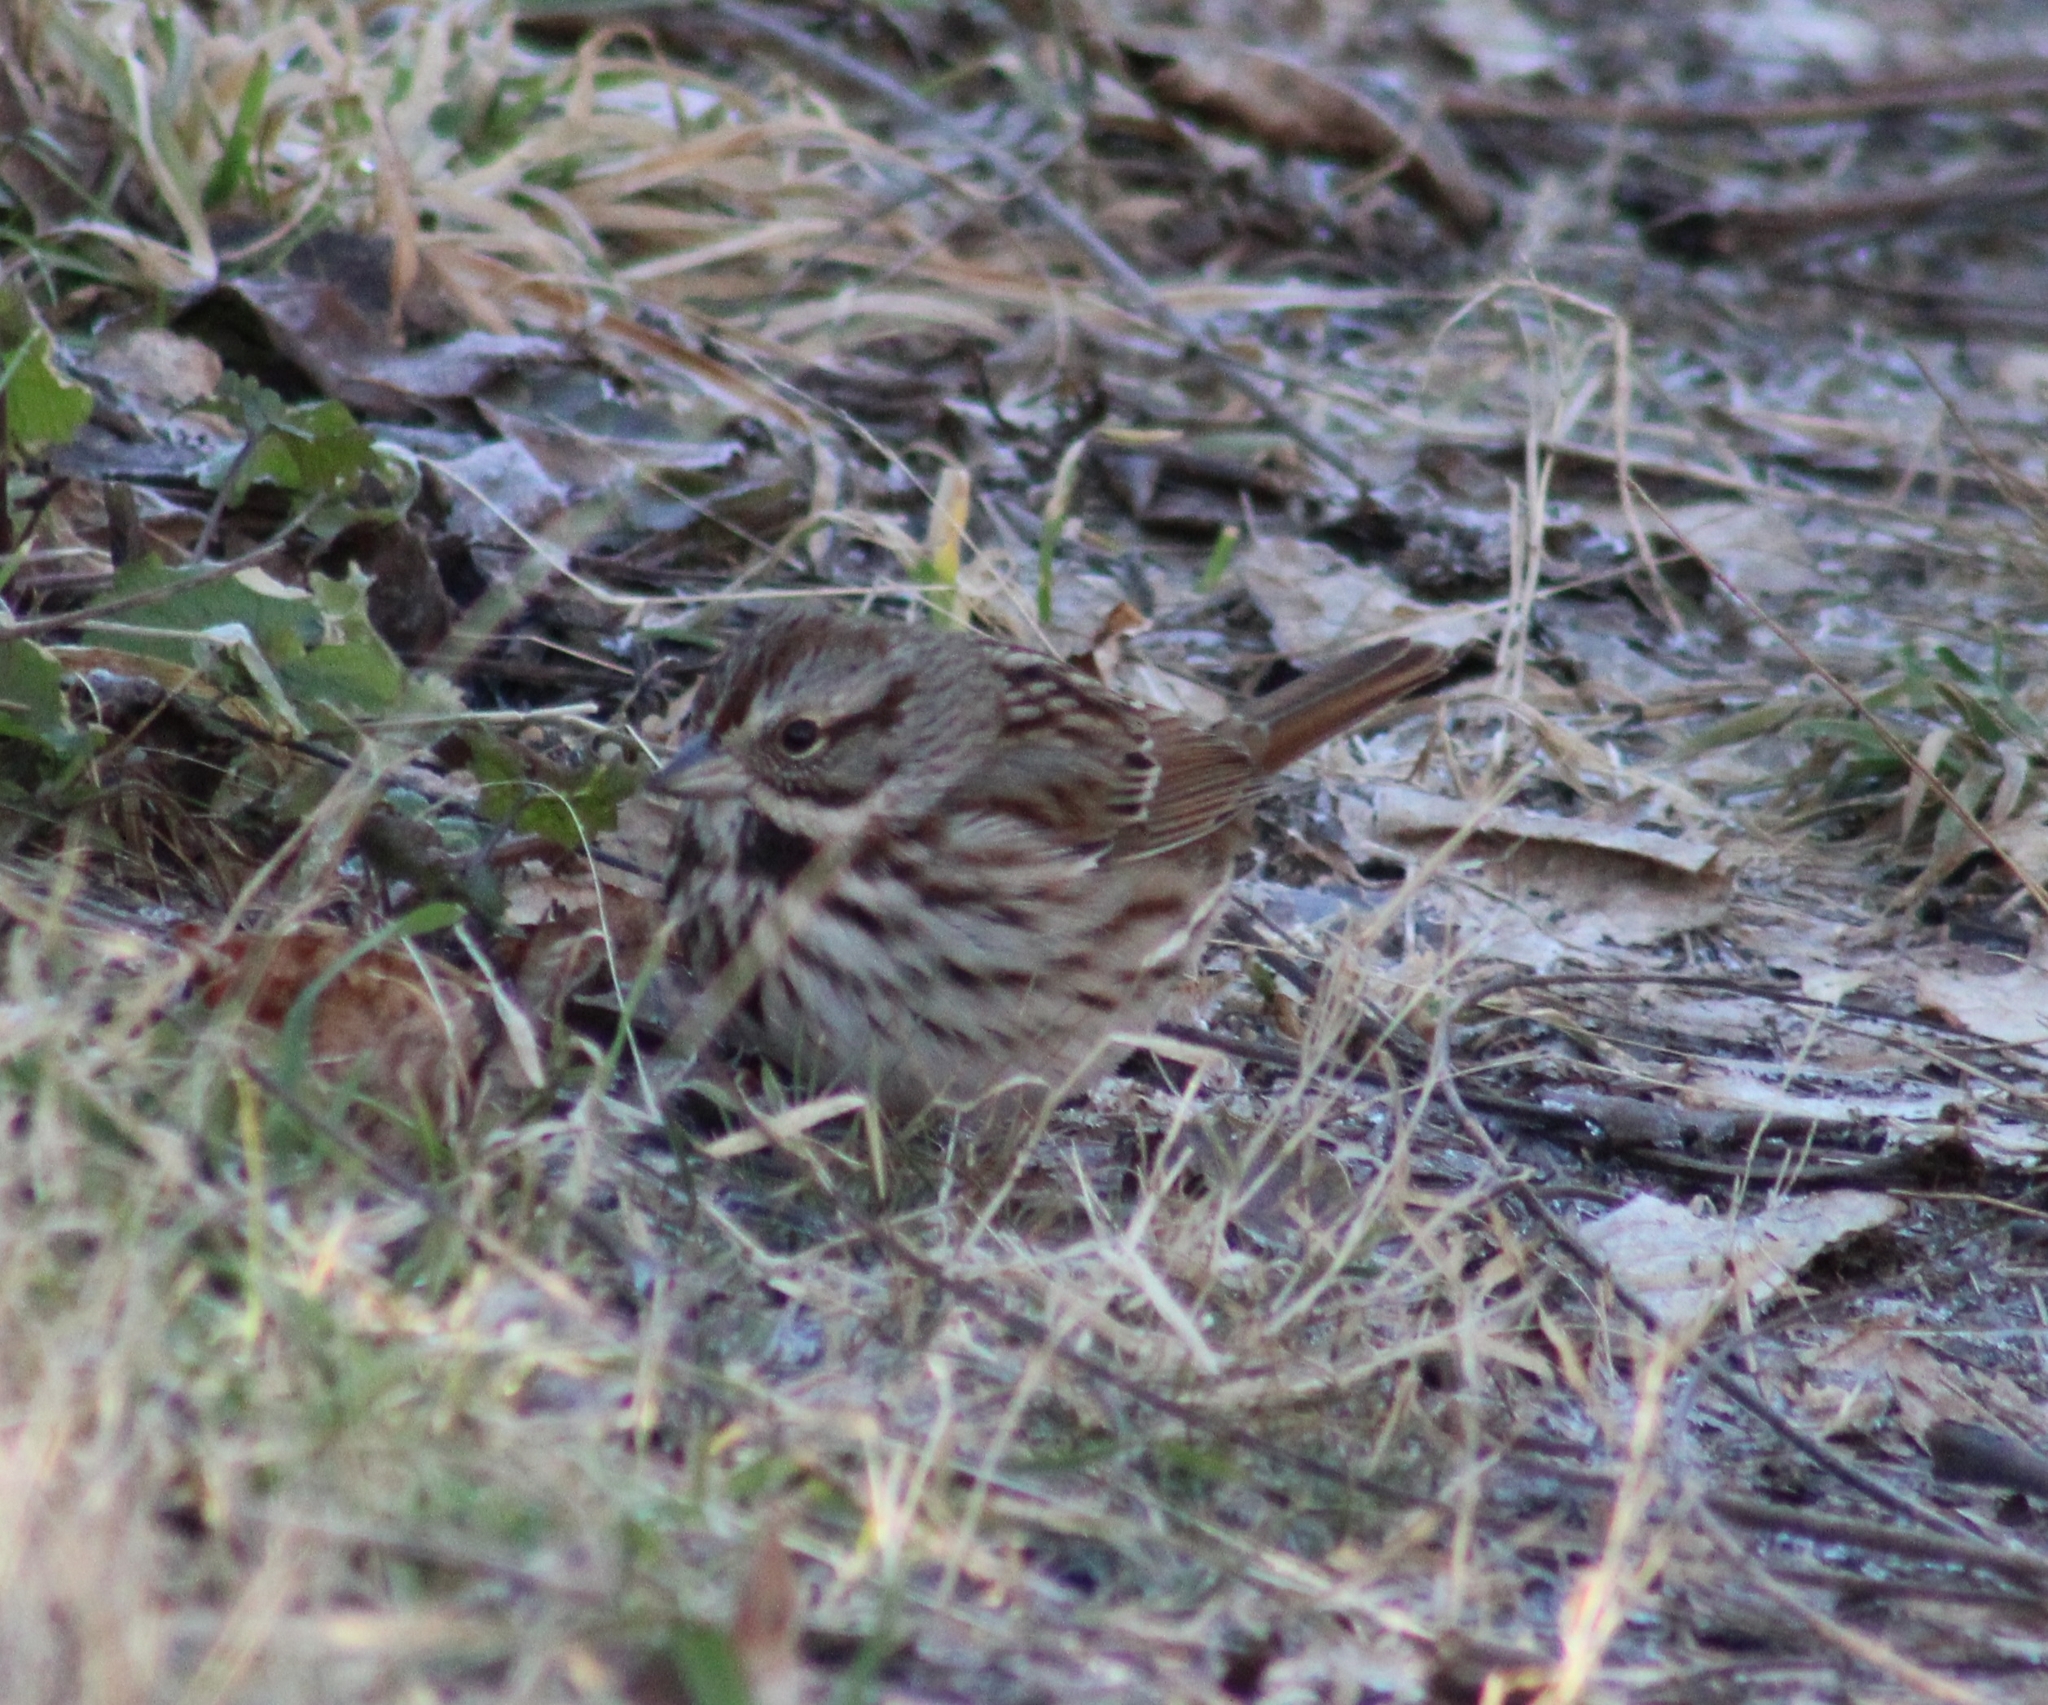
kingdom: Animalia
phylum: Chordata
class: Aves
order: Passeriformes
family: Passerellidae
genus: Melospiza
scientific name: Melospiza melodia
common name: Song sparrow
